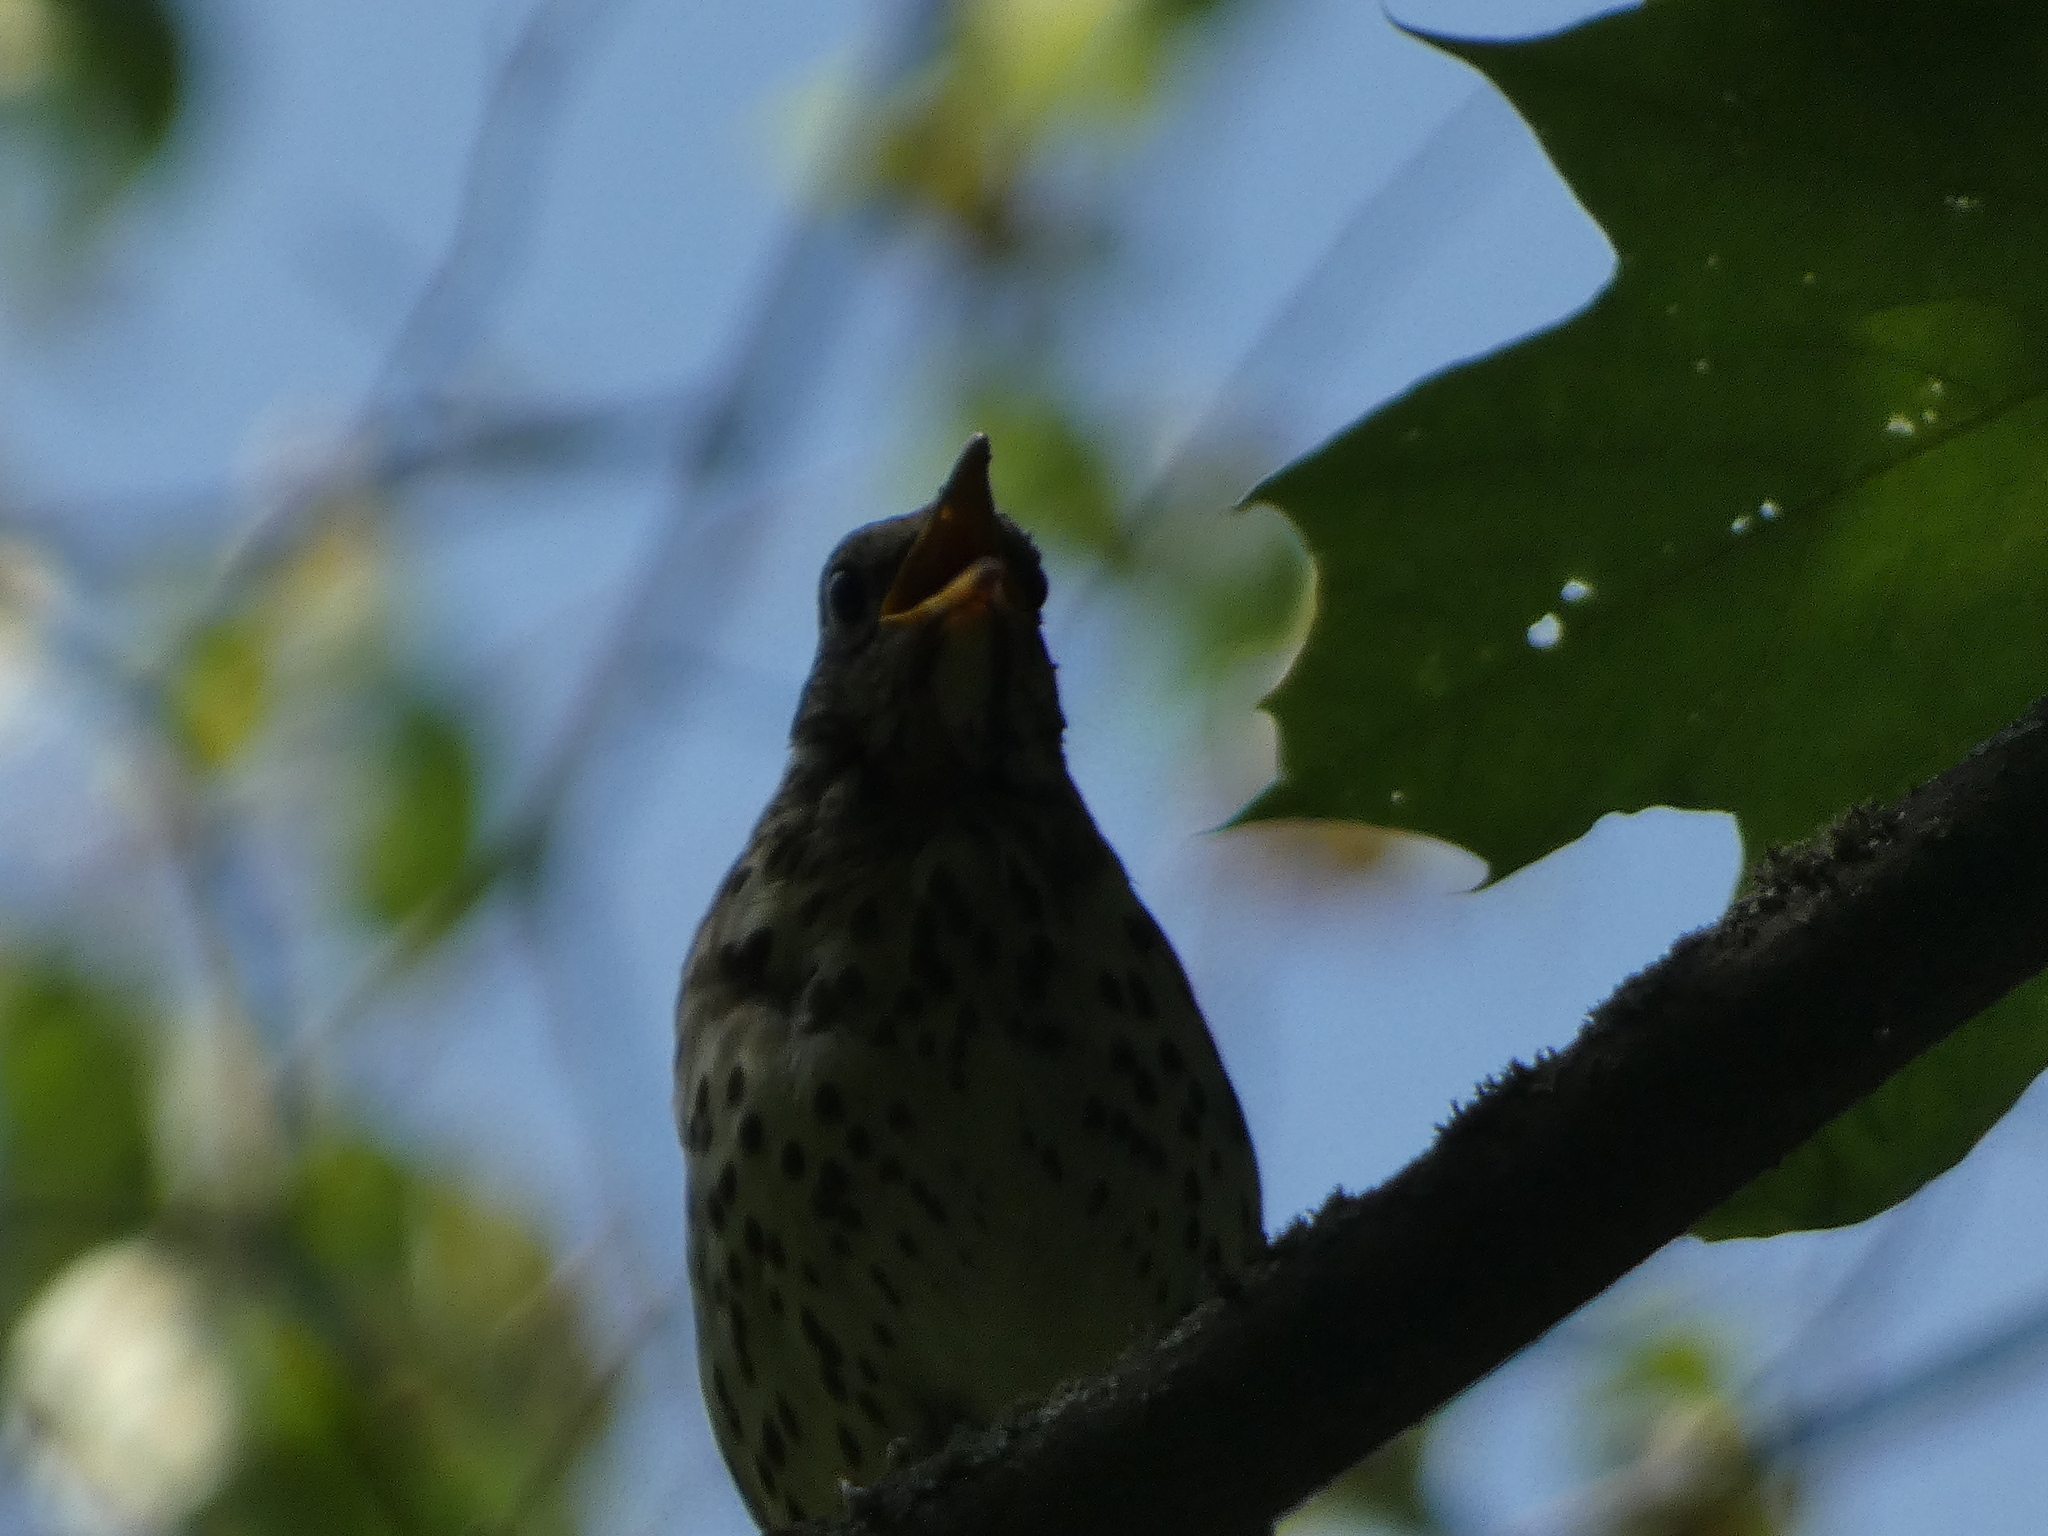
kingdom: Animalia
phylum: Chordata
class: Aves
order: Passeriformes
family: Turdidae
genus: Turdus
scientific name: Turdus philomelos
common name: Song thrush
